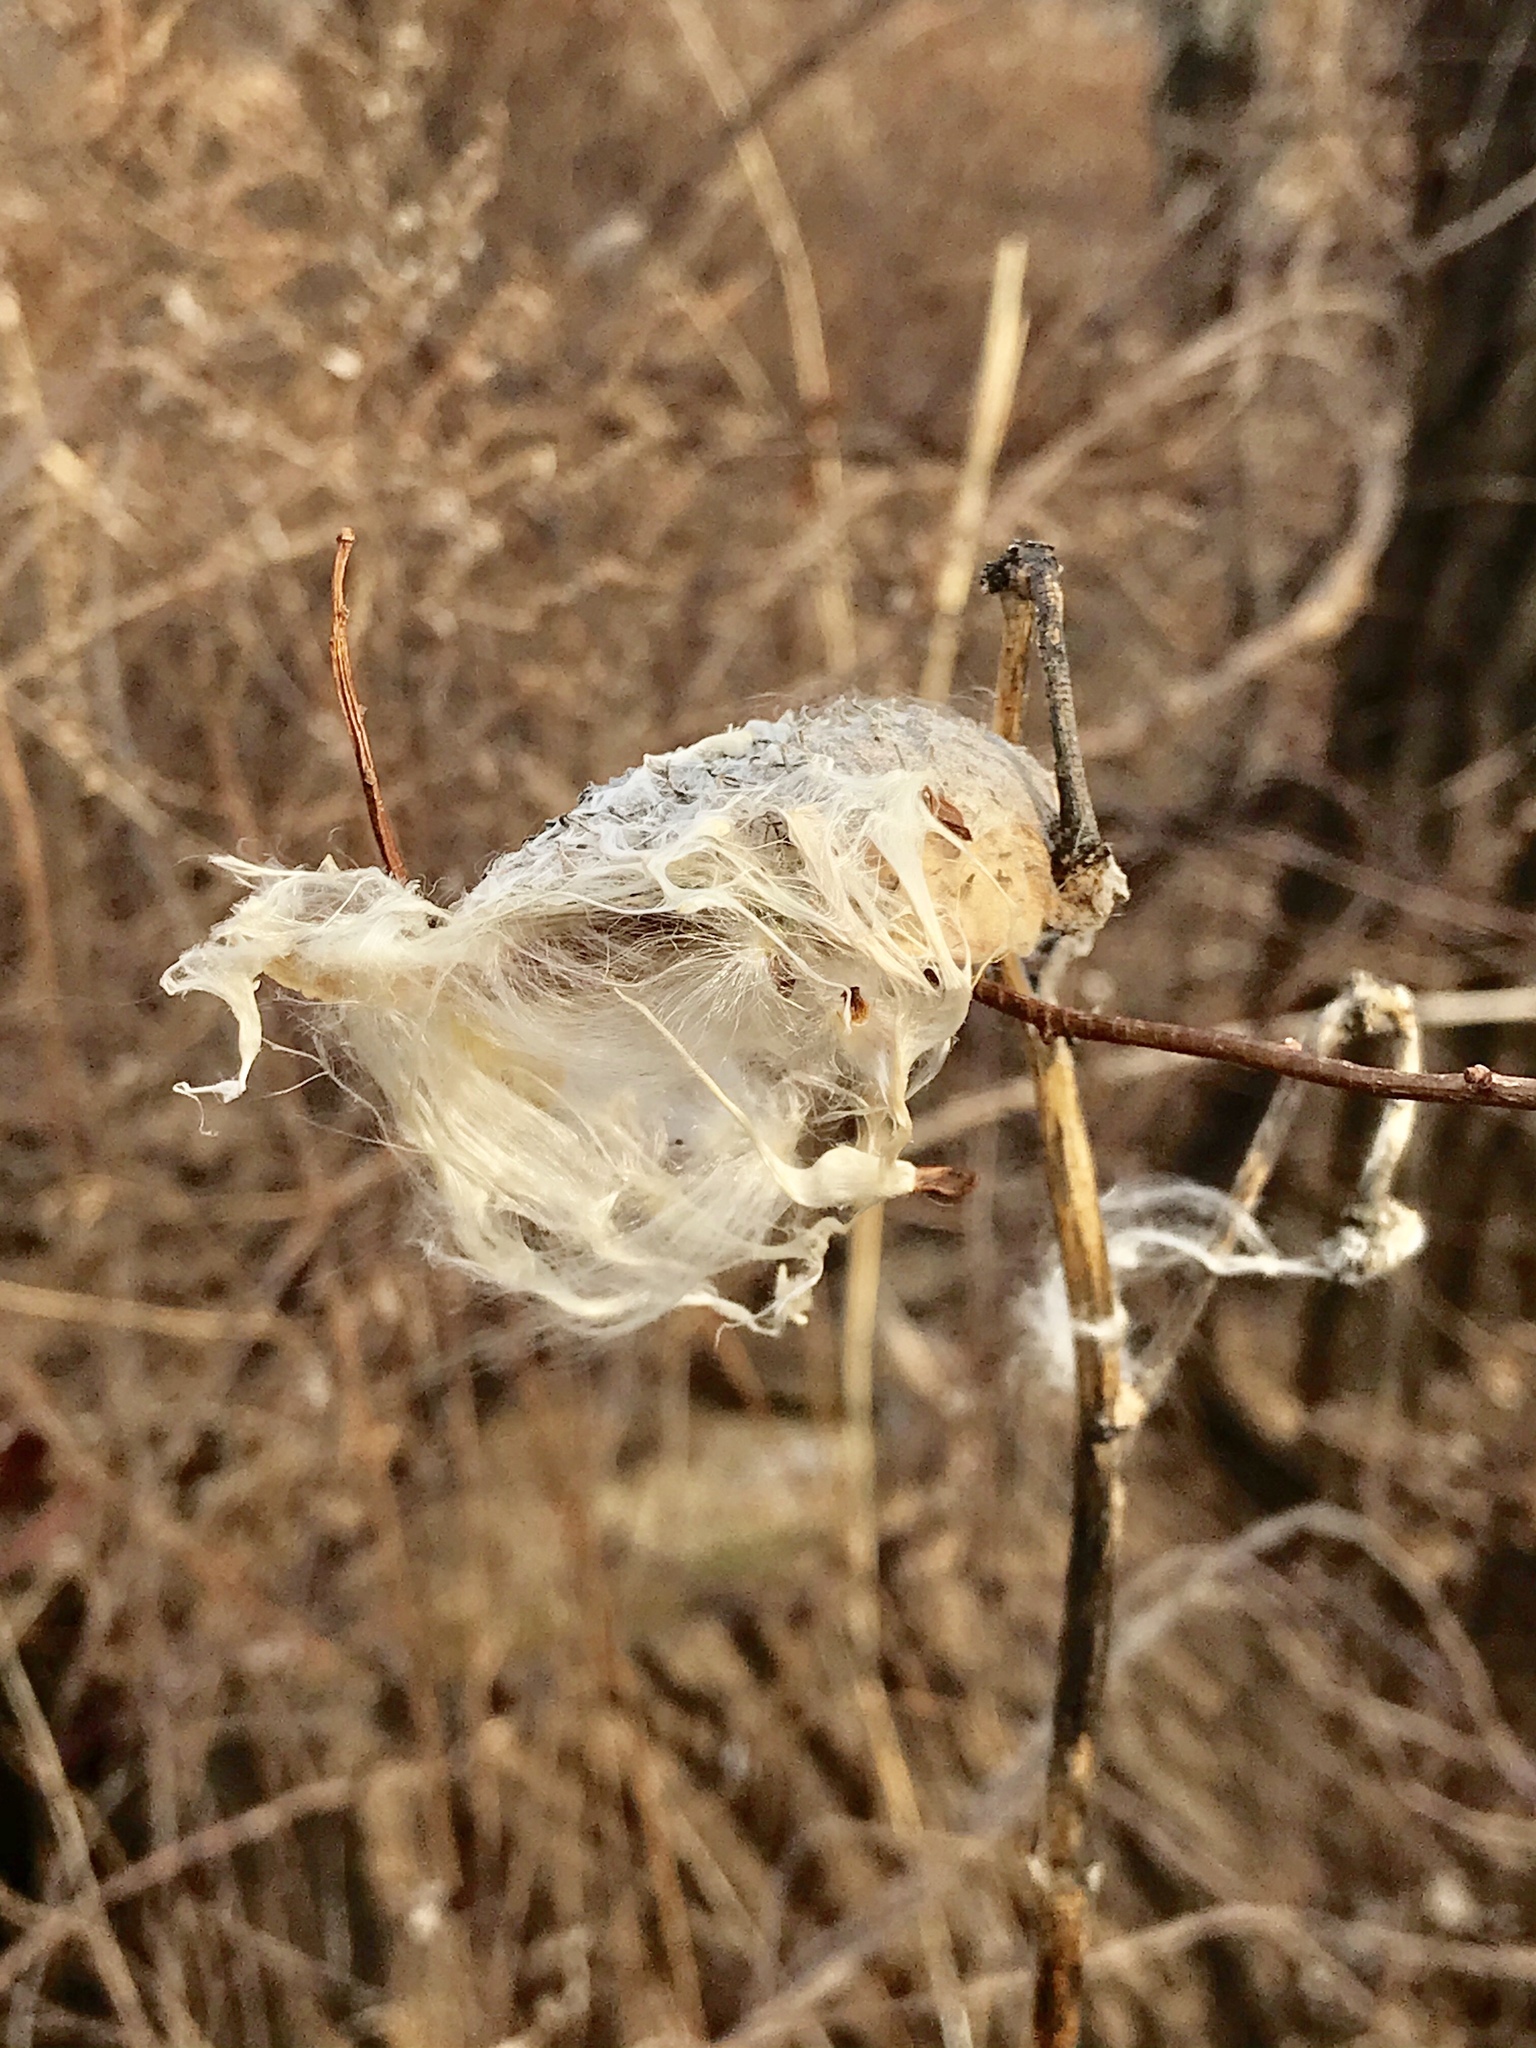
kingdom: Plantae
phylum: Tracheophyta
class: Magnoliopsida
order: Gentianales
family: Apocynaceae
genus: Asclepias
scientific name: Asclepias syriaca
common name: Common milkweed
